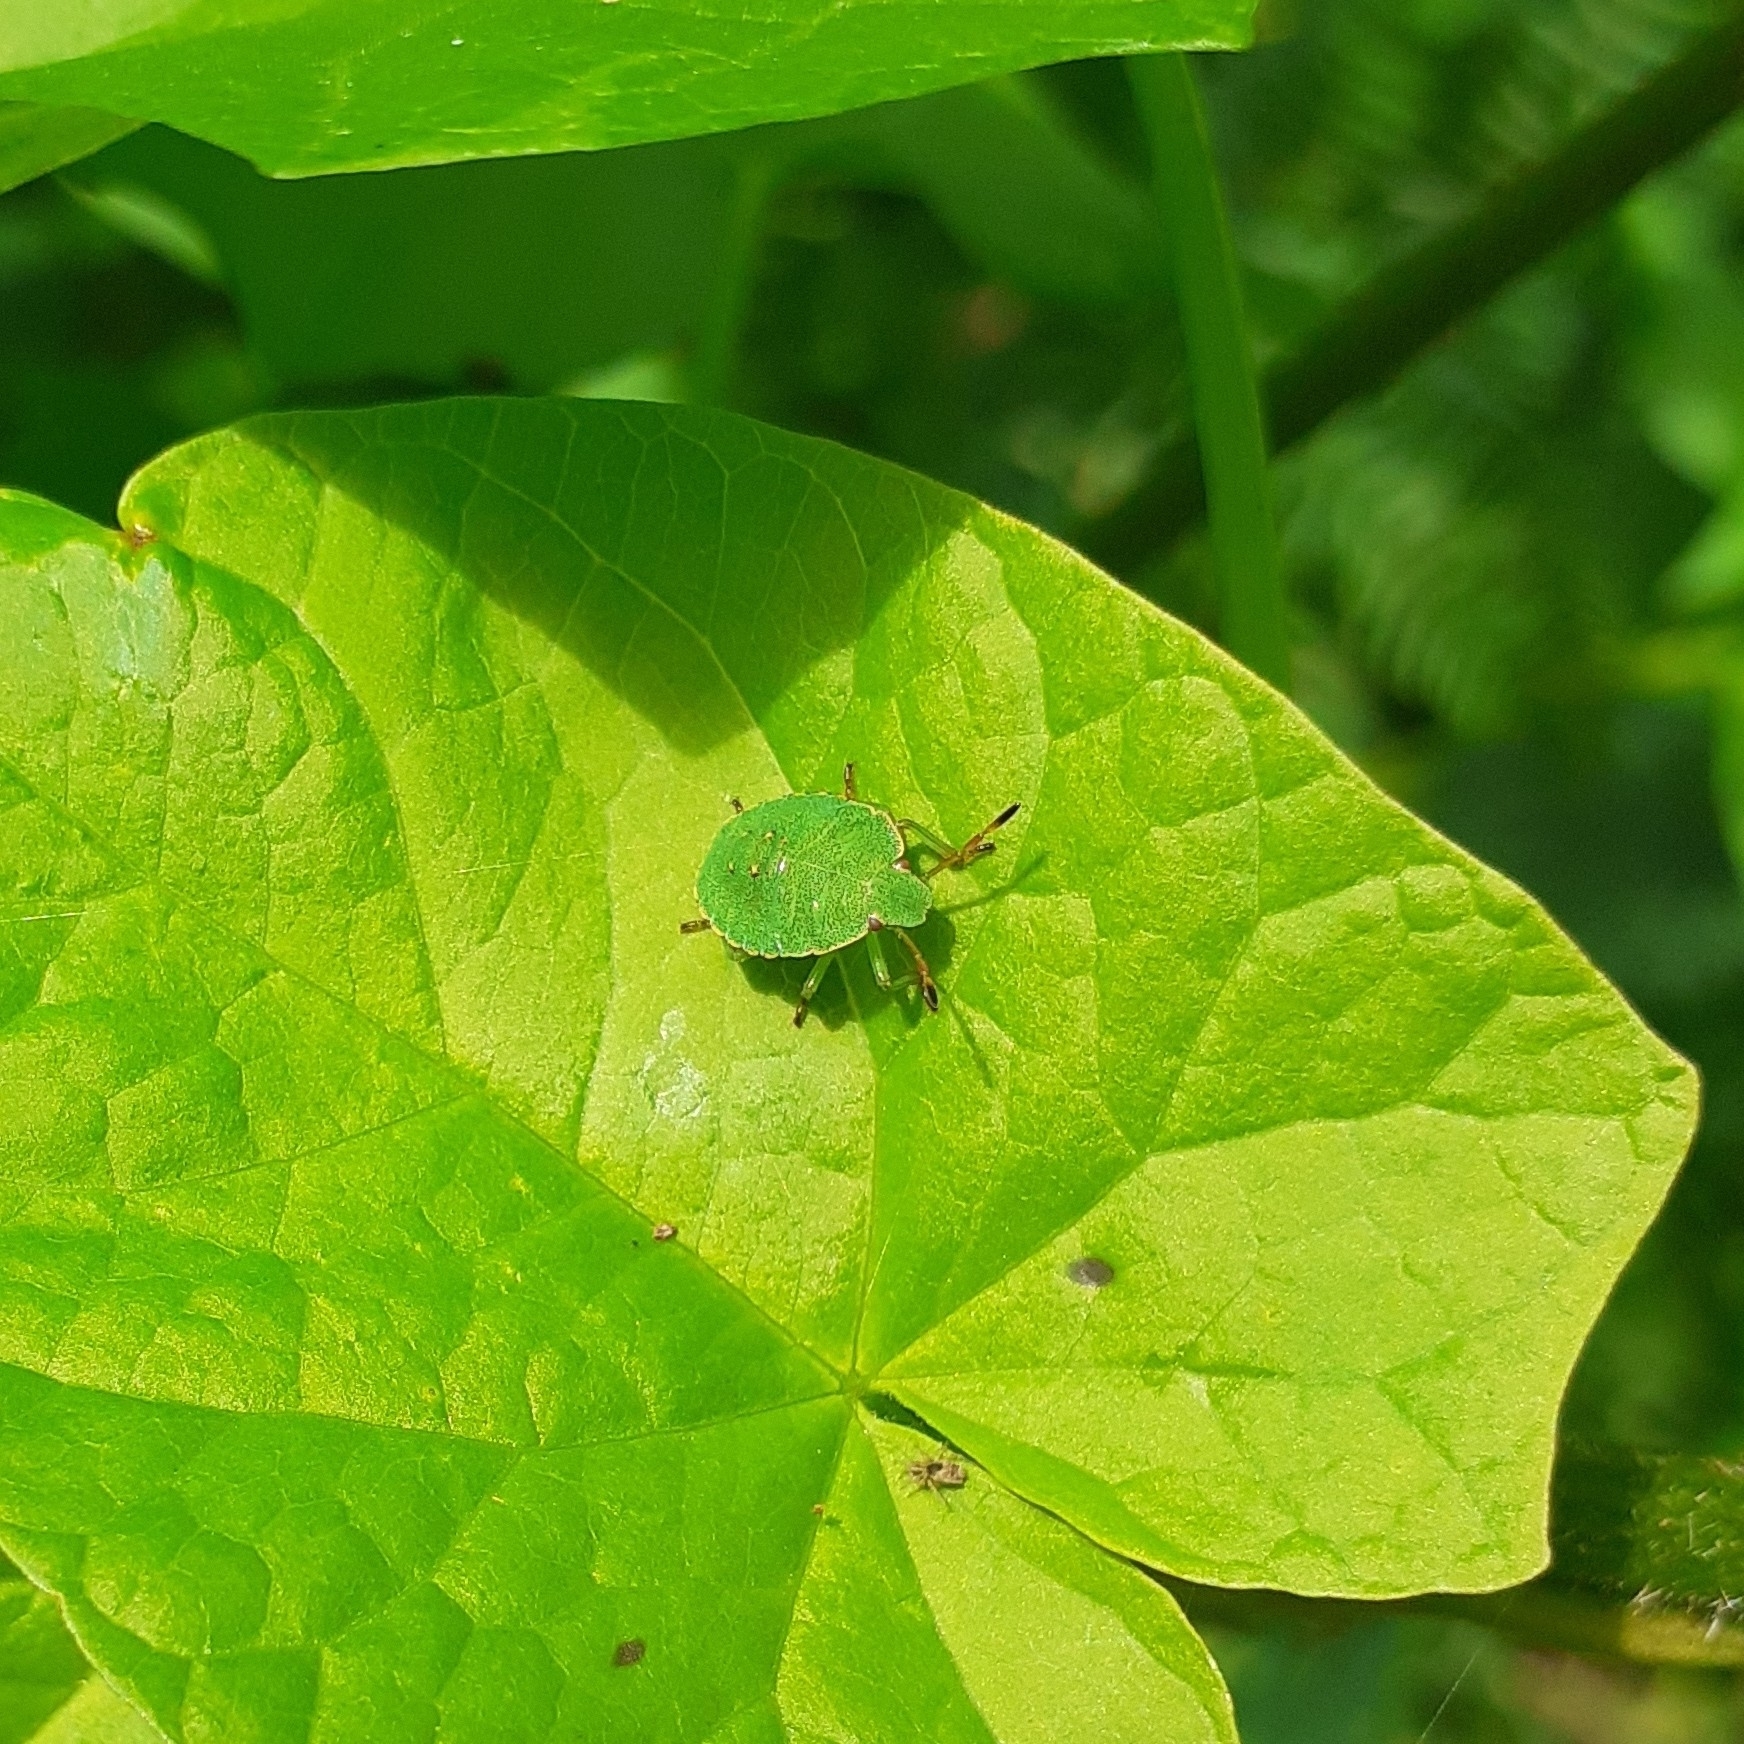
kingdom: Animalia
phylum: Arthropoda
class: Insecta
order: Hemiptera
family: Pentatomidae
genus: Palomena
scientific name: Palomena prasina
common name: Green shieldbug
